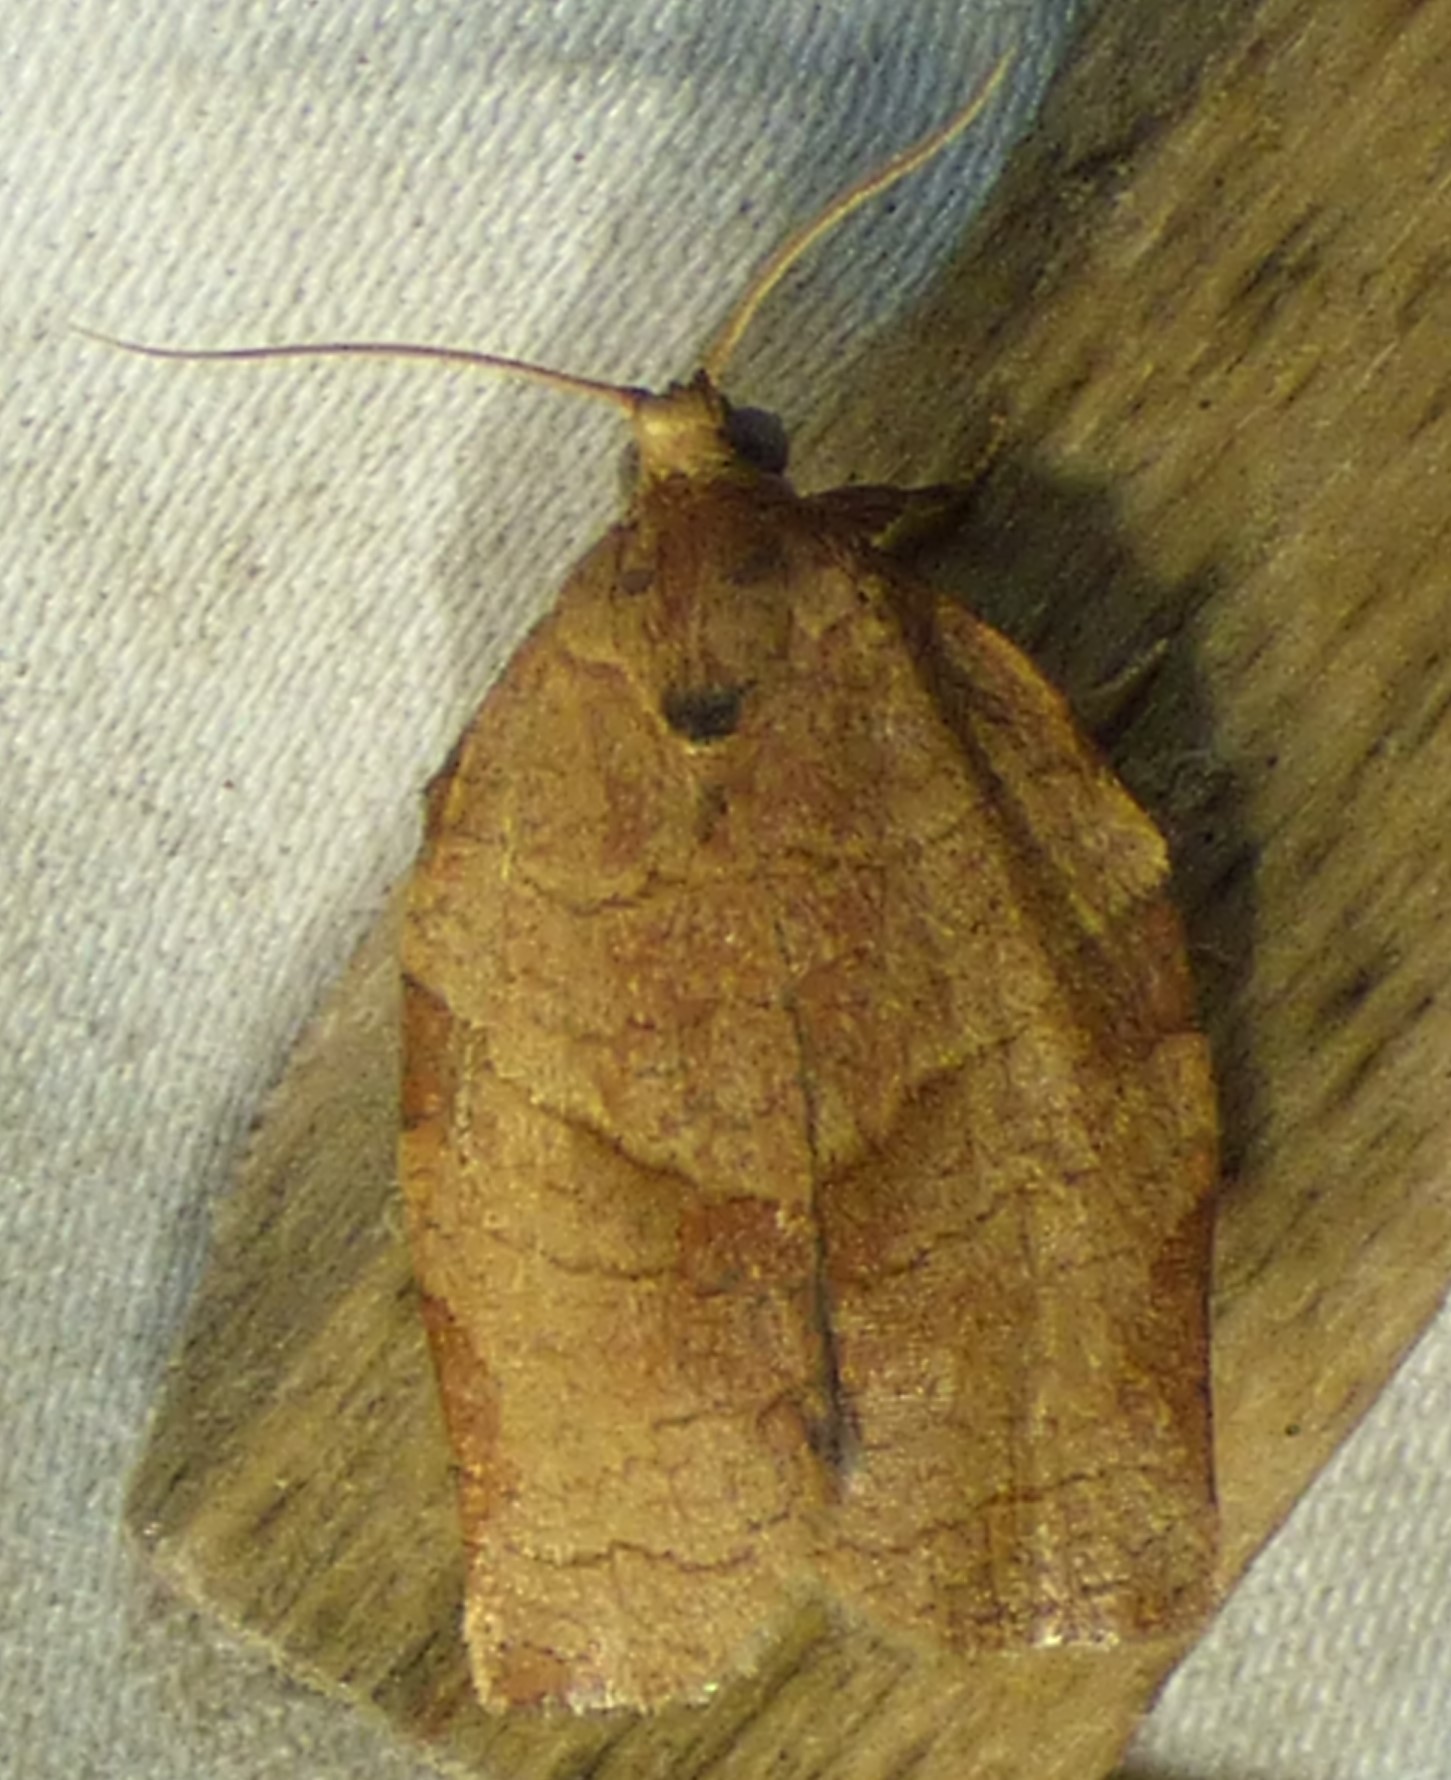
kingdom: Animalia
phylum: Arthropoda
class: Insecta
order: Lepidoptera
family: Tortricidae
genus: Choristoneura
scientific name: Choristoneura rosaceana
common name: Oblique-banded leafroller moth
